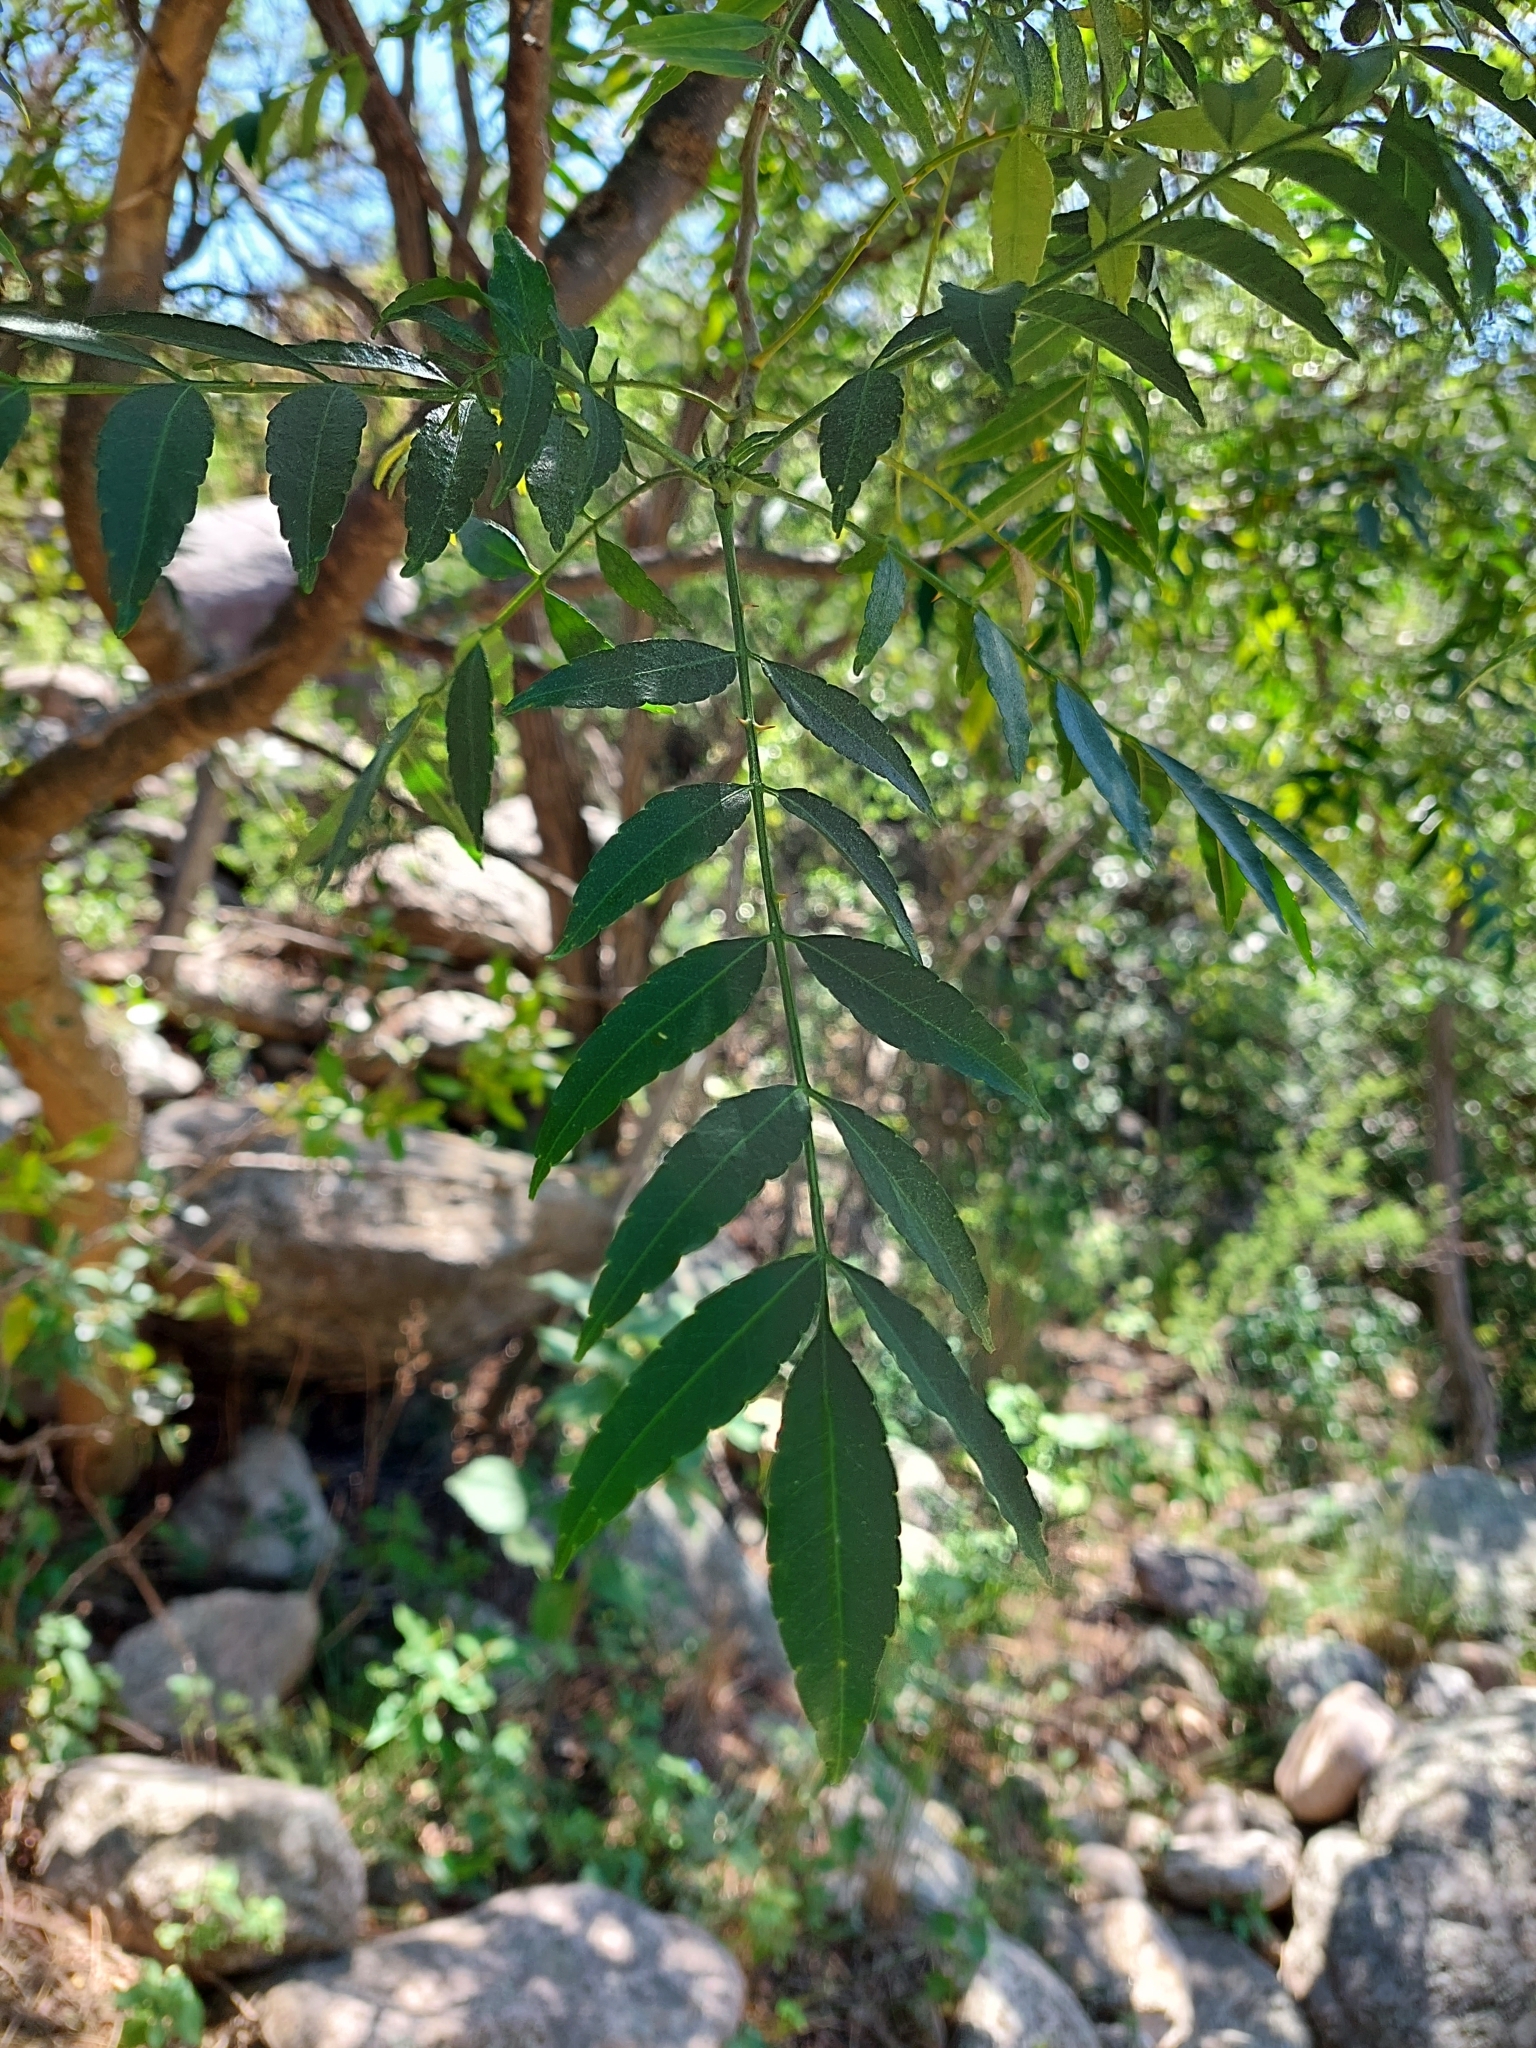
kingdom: Plantae
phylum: Tracheophyta
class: Magnoliopsida
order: Sapindales
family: Rutaceae
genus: Zanthoxylum
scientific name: Zanthoxylum coco
